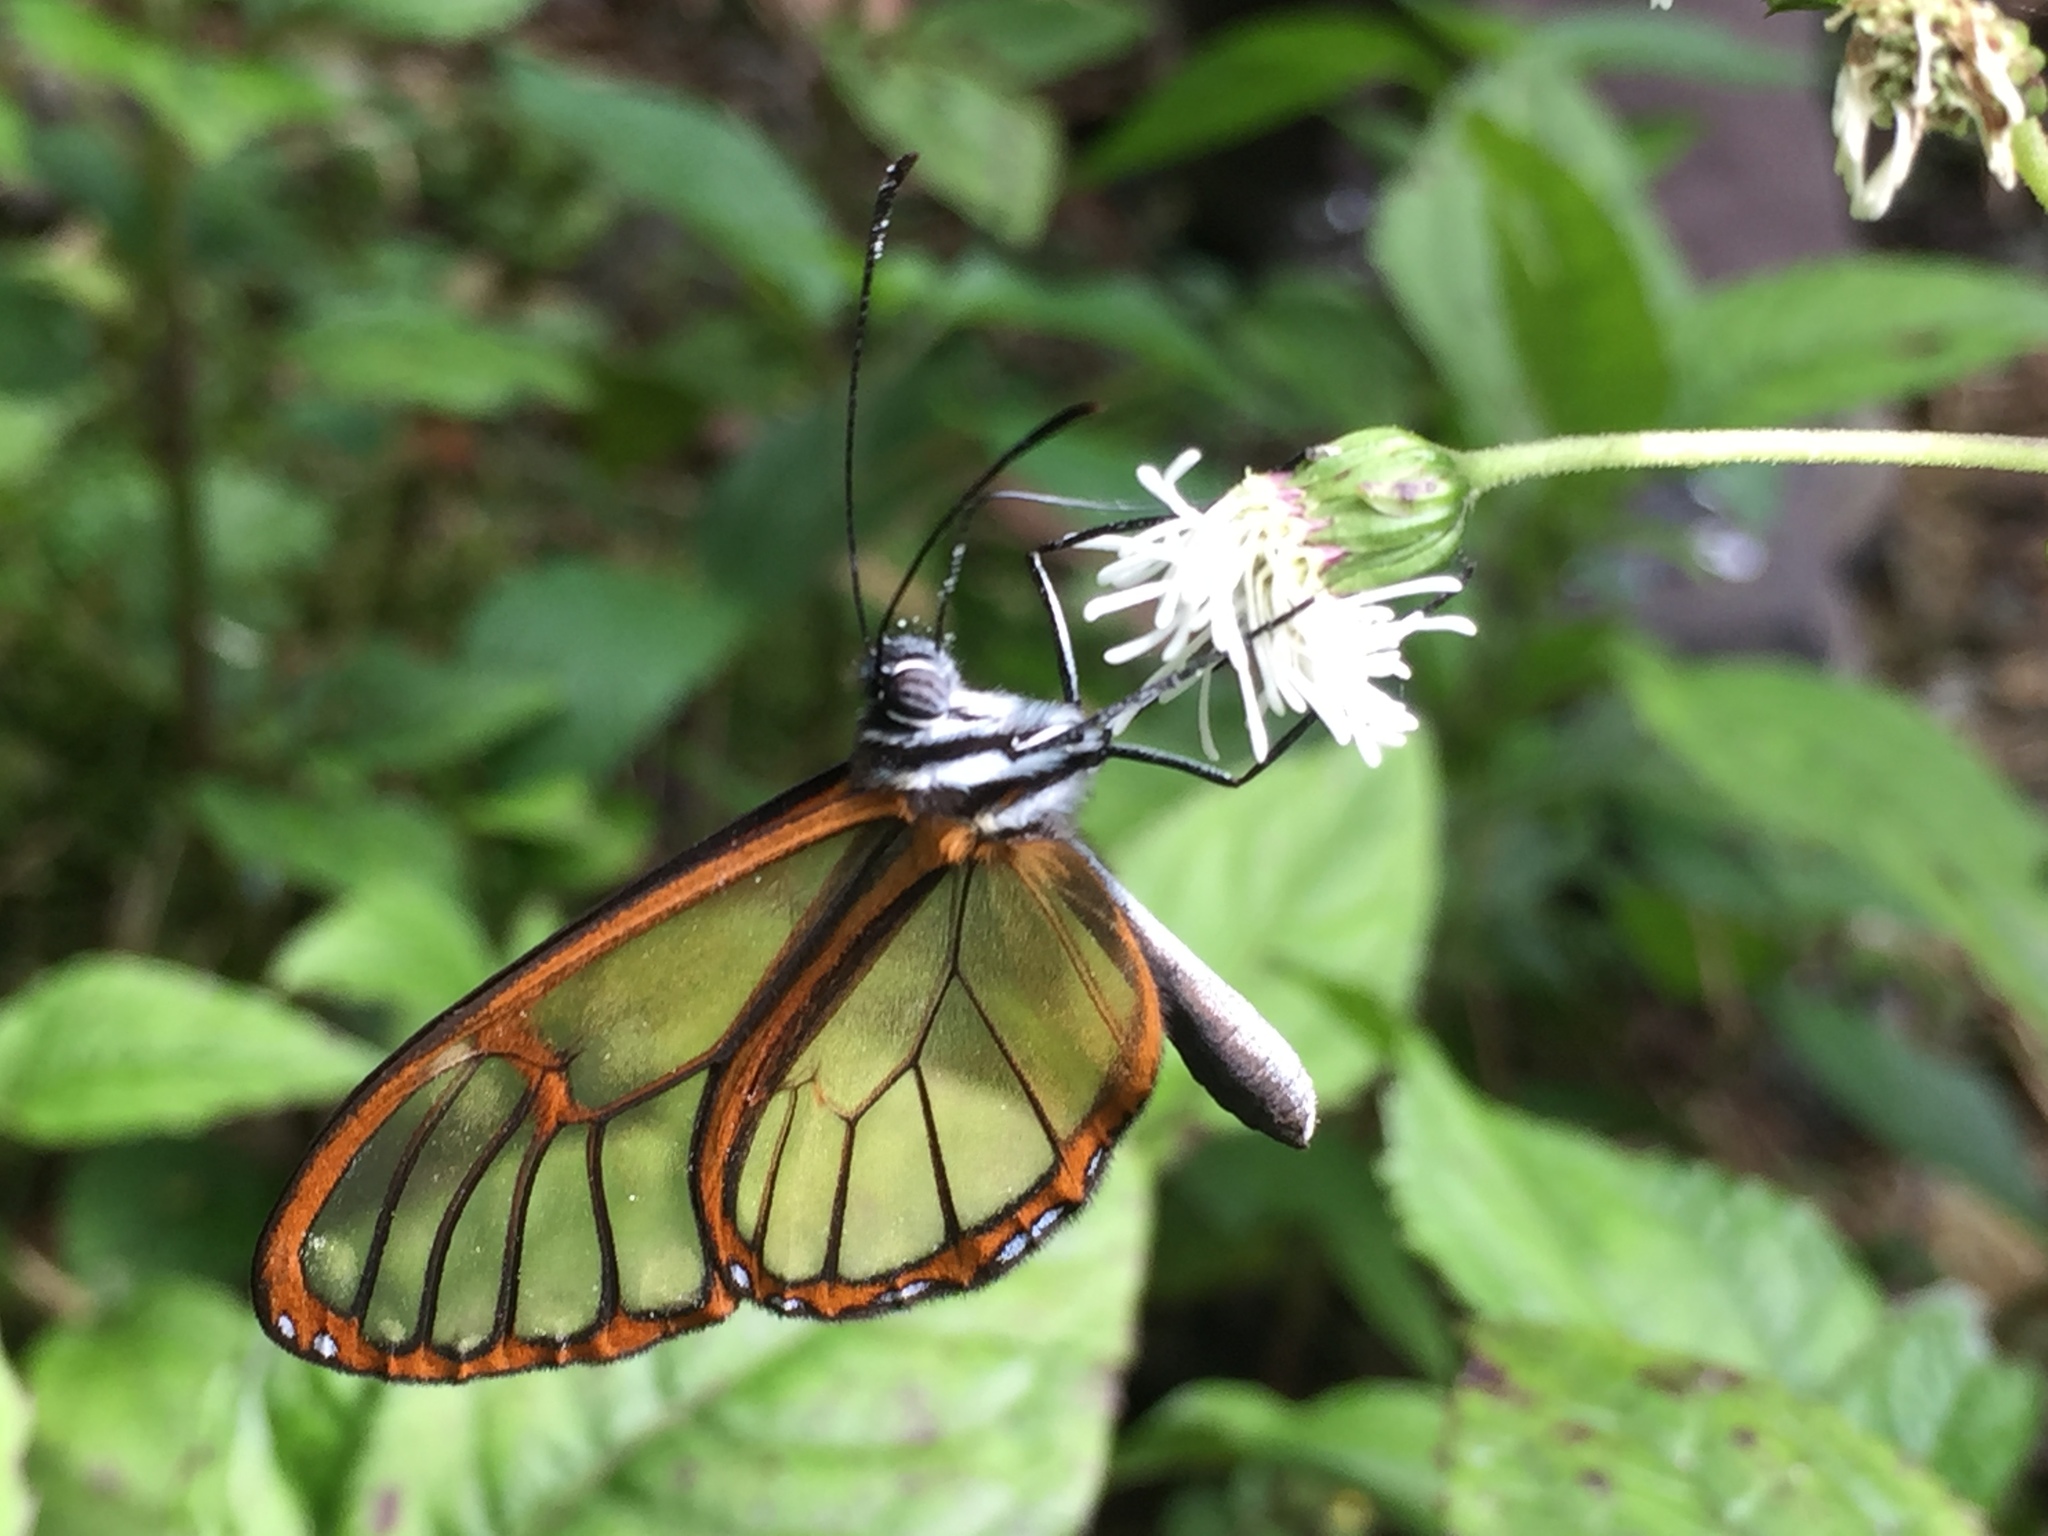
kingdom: Animalia
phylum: Arthropoda
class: Insecta
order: Lepidoptera
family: Nymphalidae
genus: Pteronymia
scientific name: Pteronymia alida
